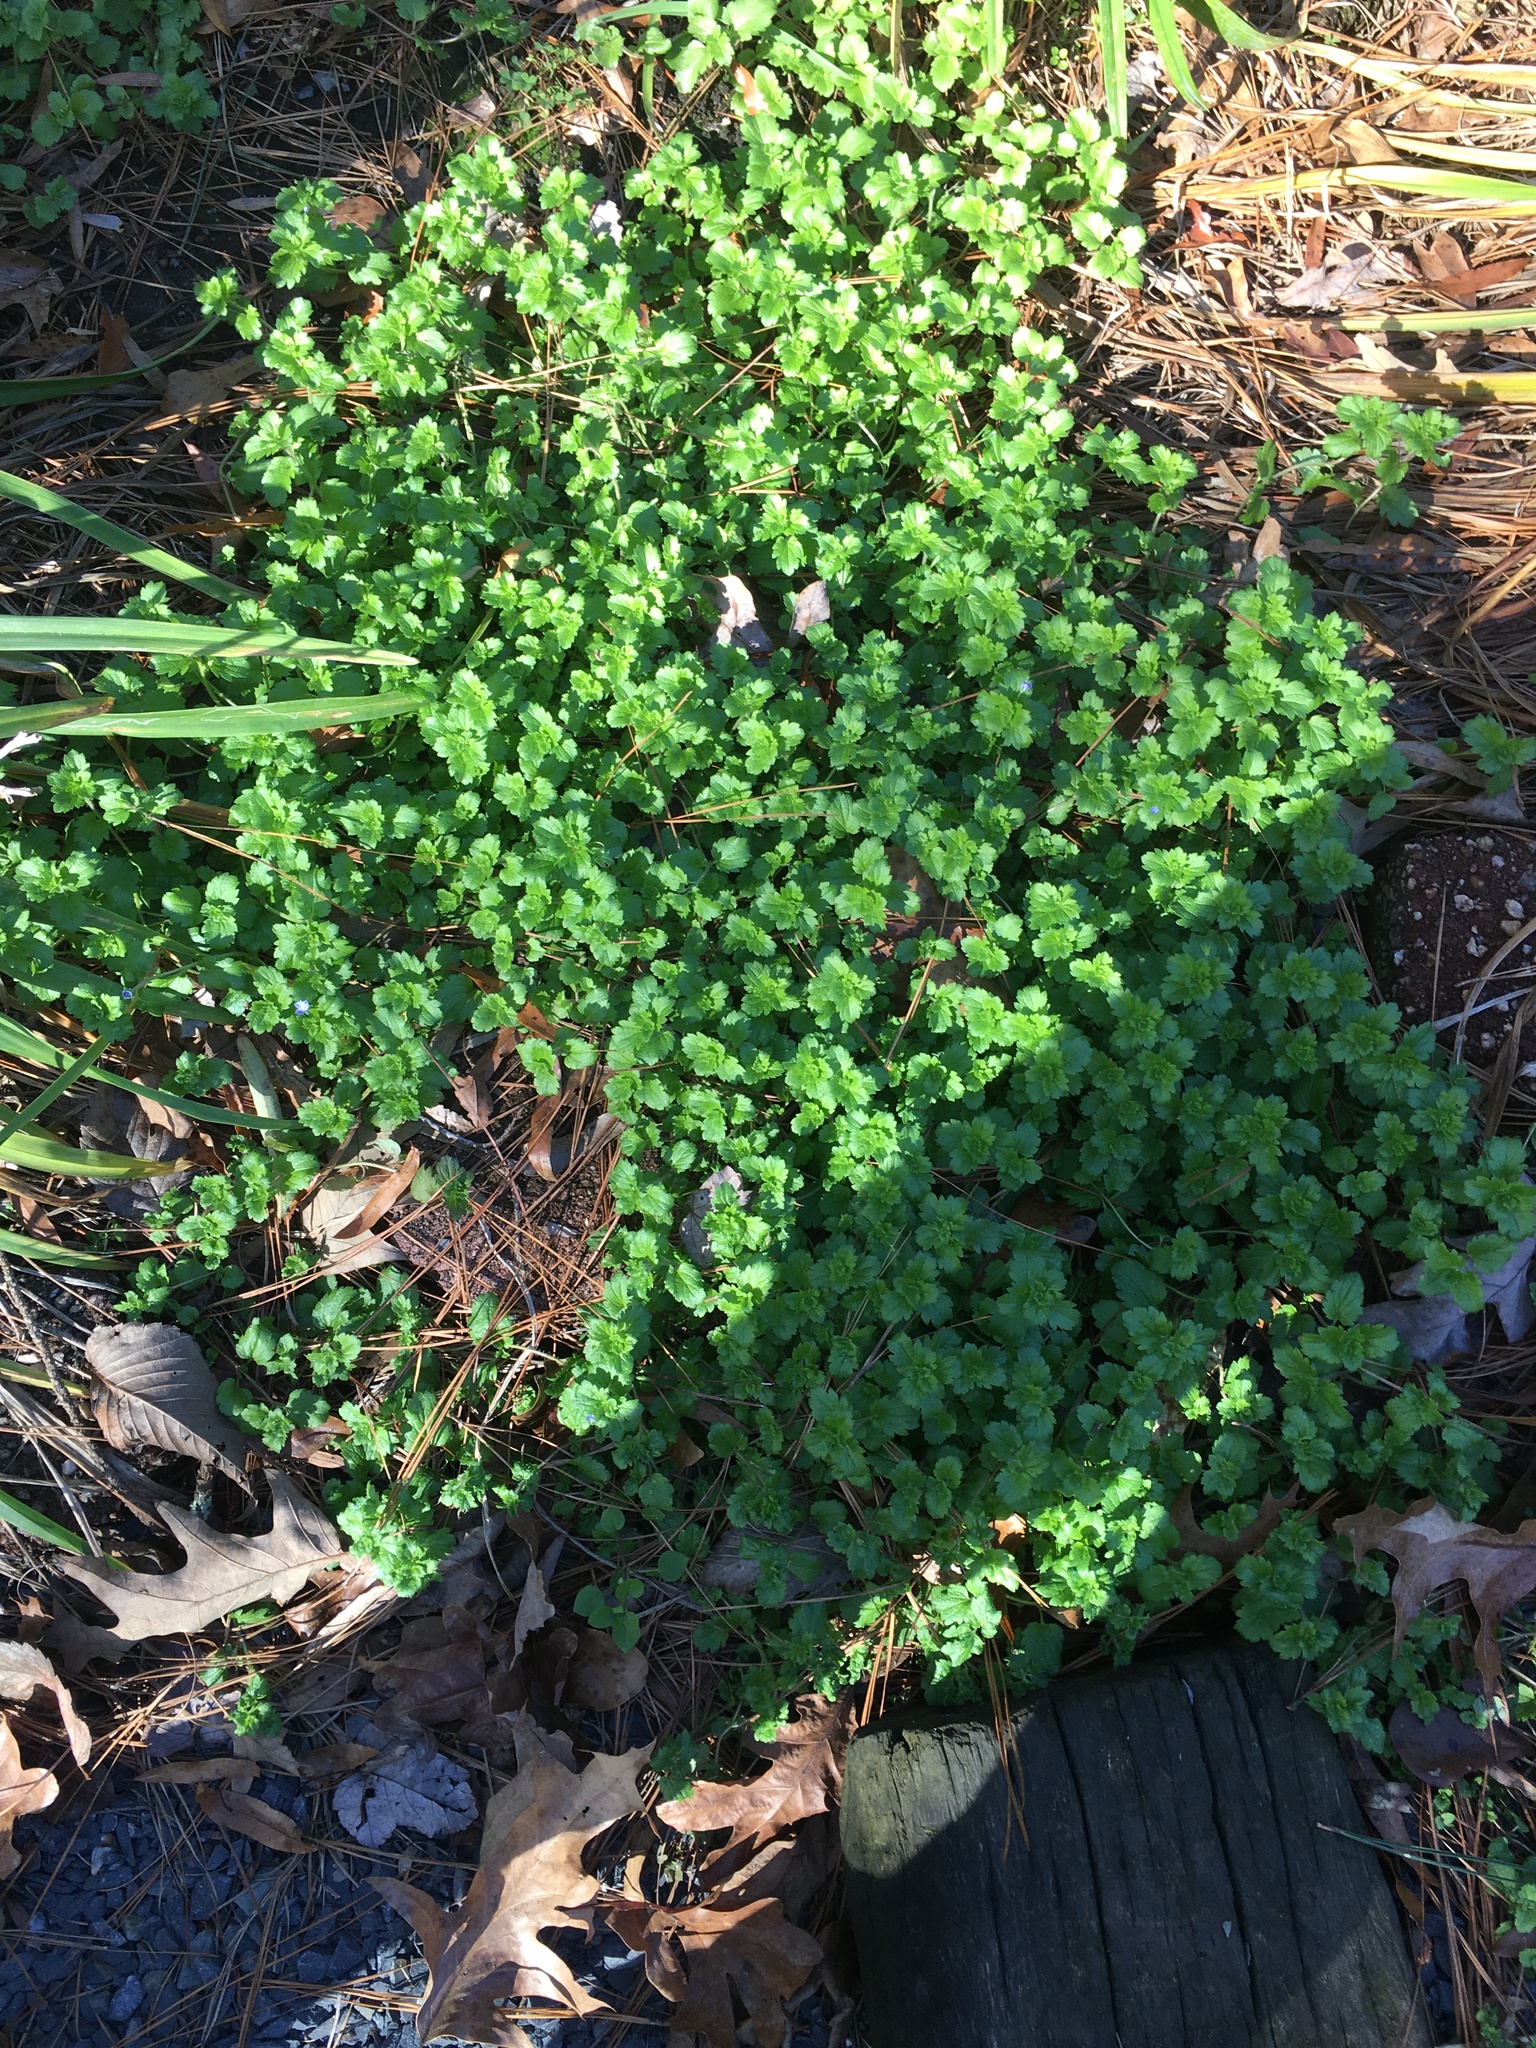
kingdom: Plantae
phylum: Tracheophyta
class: Magnoliopsida
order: Lamiales
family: Plantaginaceae
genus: Veronica
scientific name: Veronica persica
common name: Common field-speedwell
